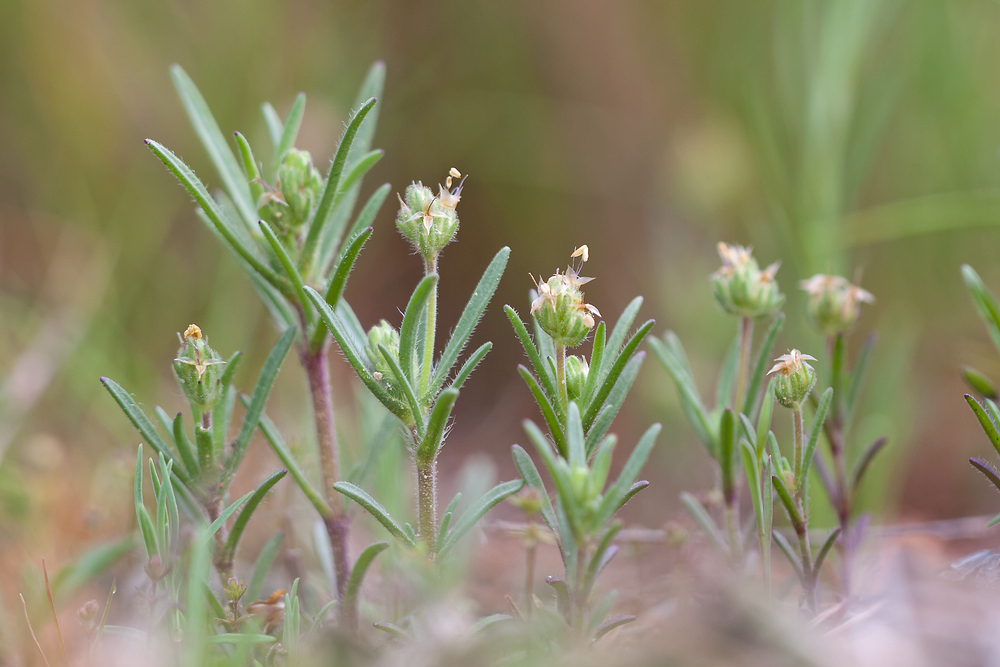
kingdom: Plantae
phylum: Tracheophyta
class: Magnoliopsida
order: Lamiales
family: Plantaginaceae
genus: Plantago
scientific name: Plantago afra
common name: Glandular plantain
